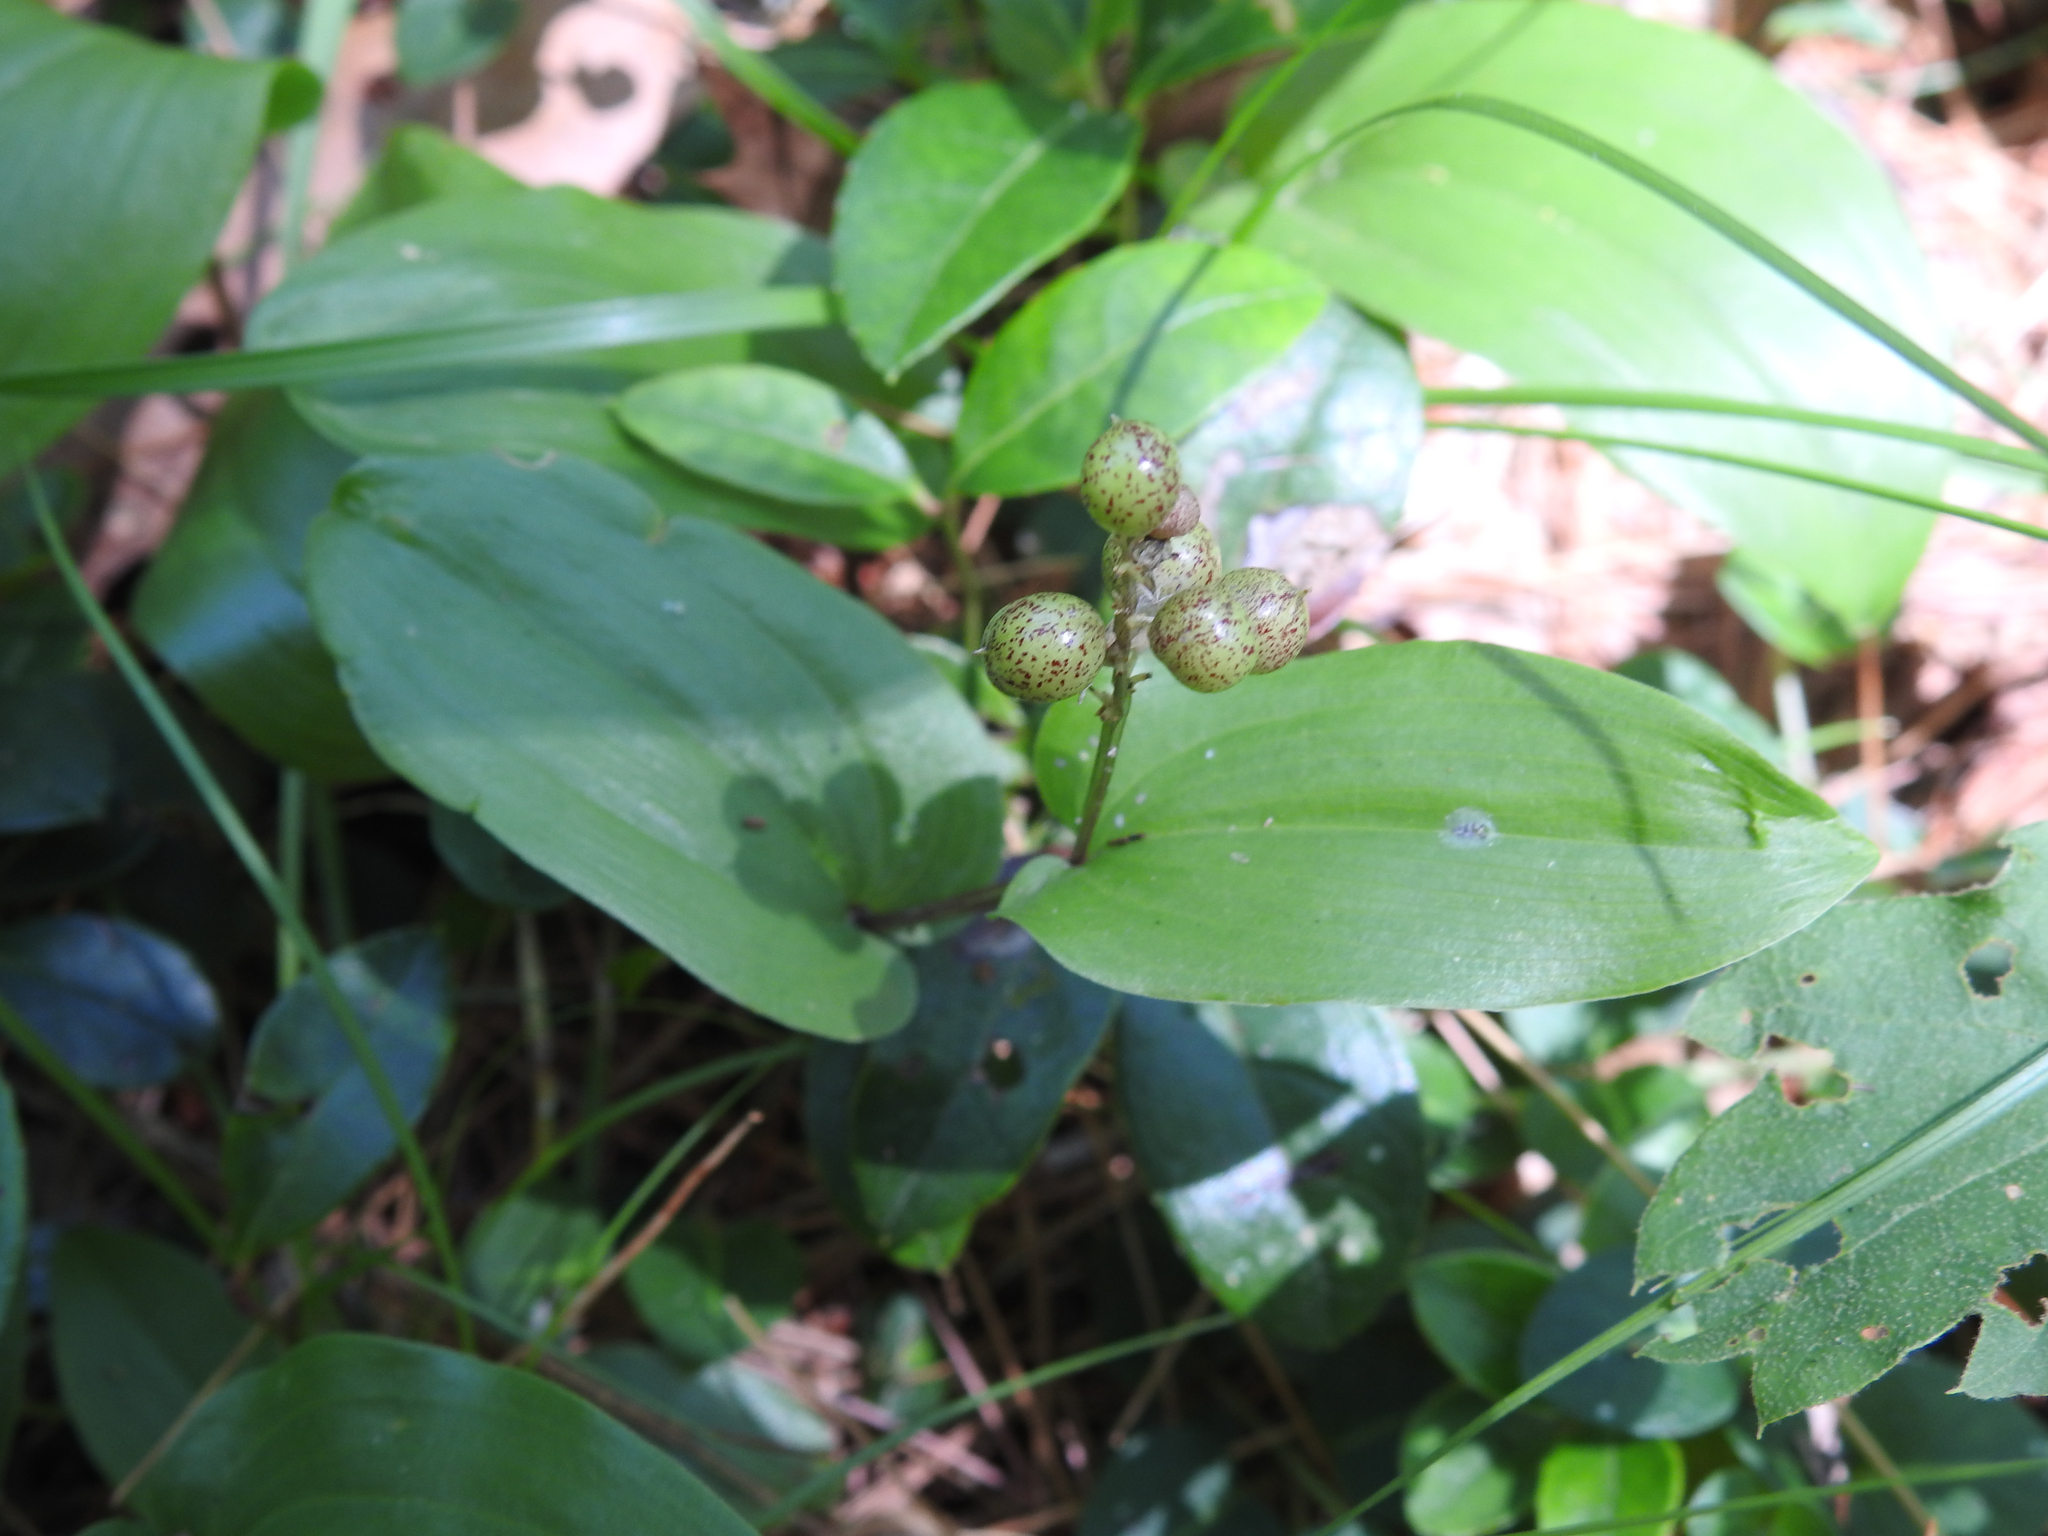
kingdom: Plantae
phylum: Tracheophyta
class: Liliopsida
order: Asparagales
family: Asparagaceae
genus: Maianthemum
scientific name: Maianthemum canadense
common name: False lily-of-the-valley
